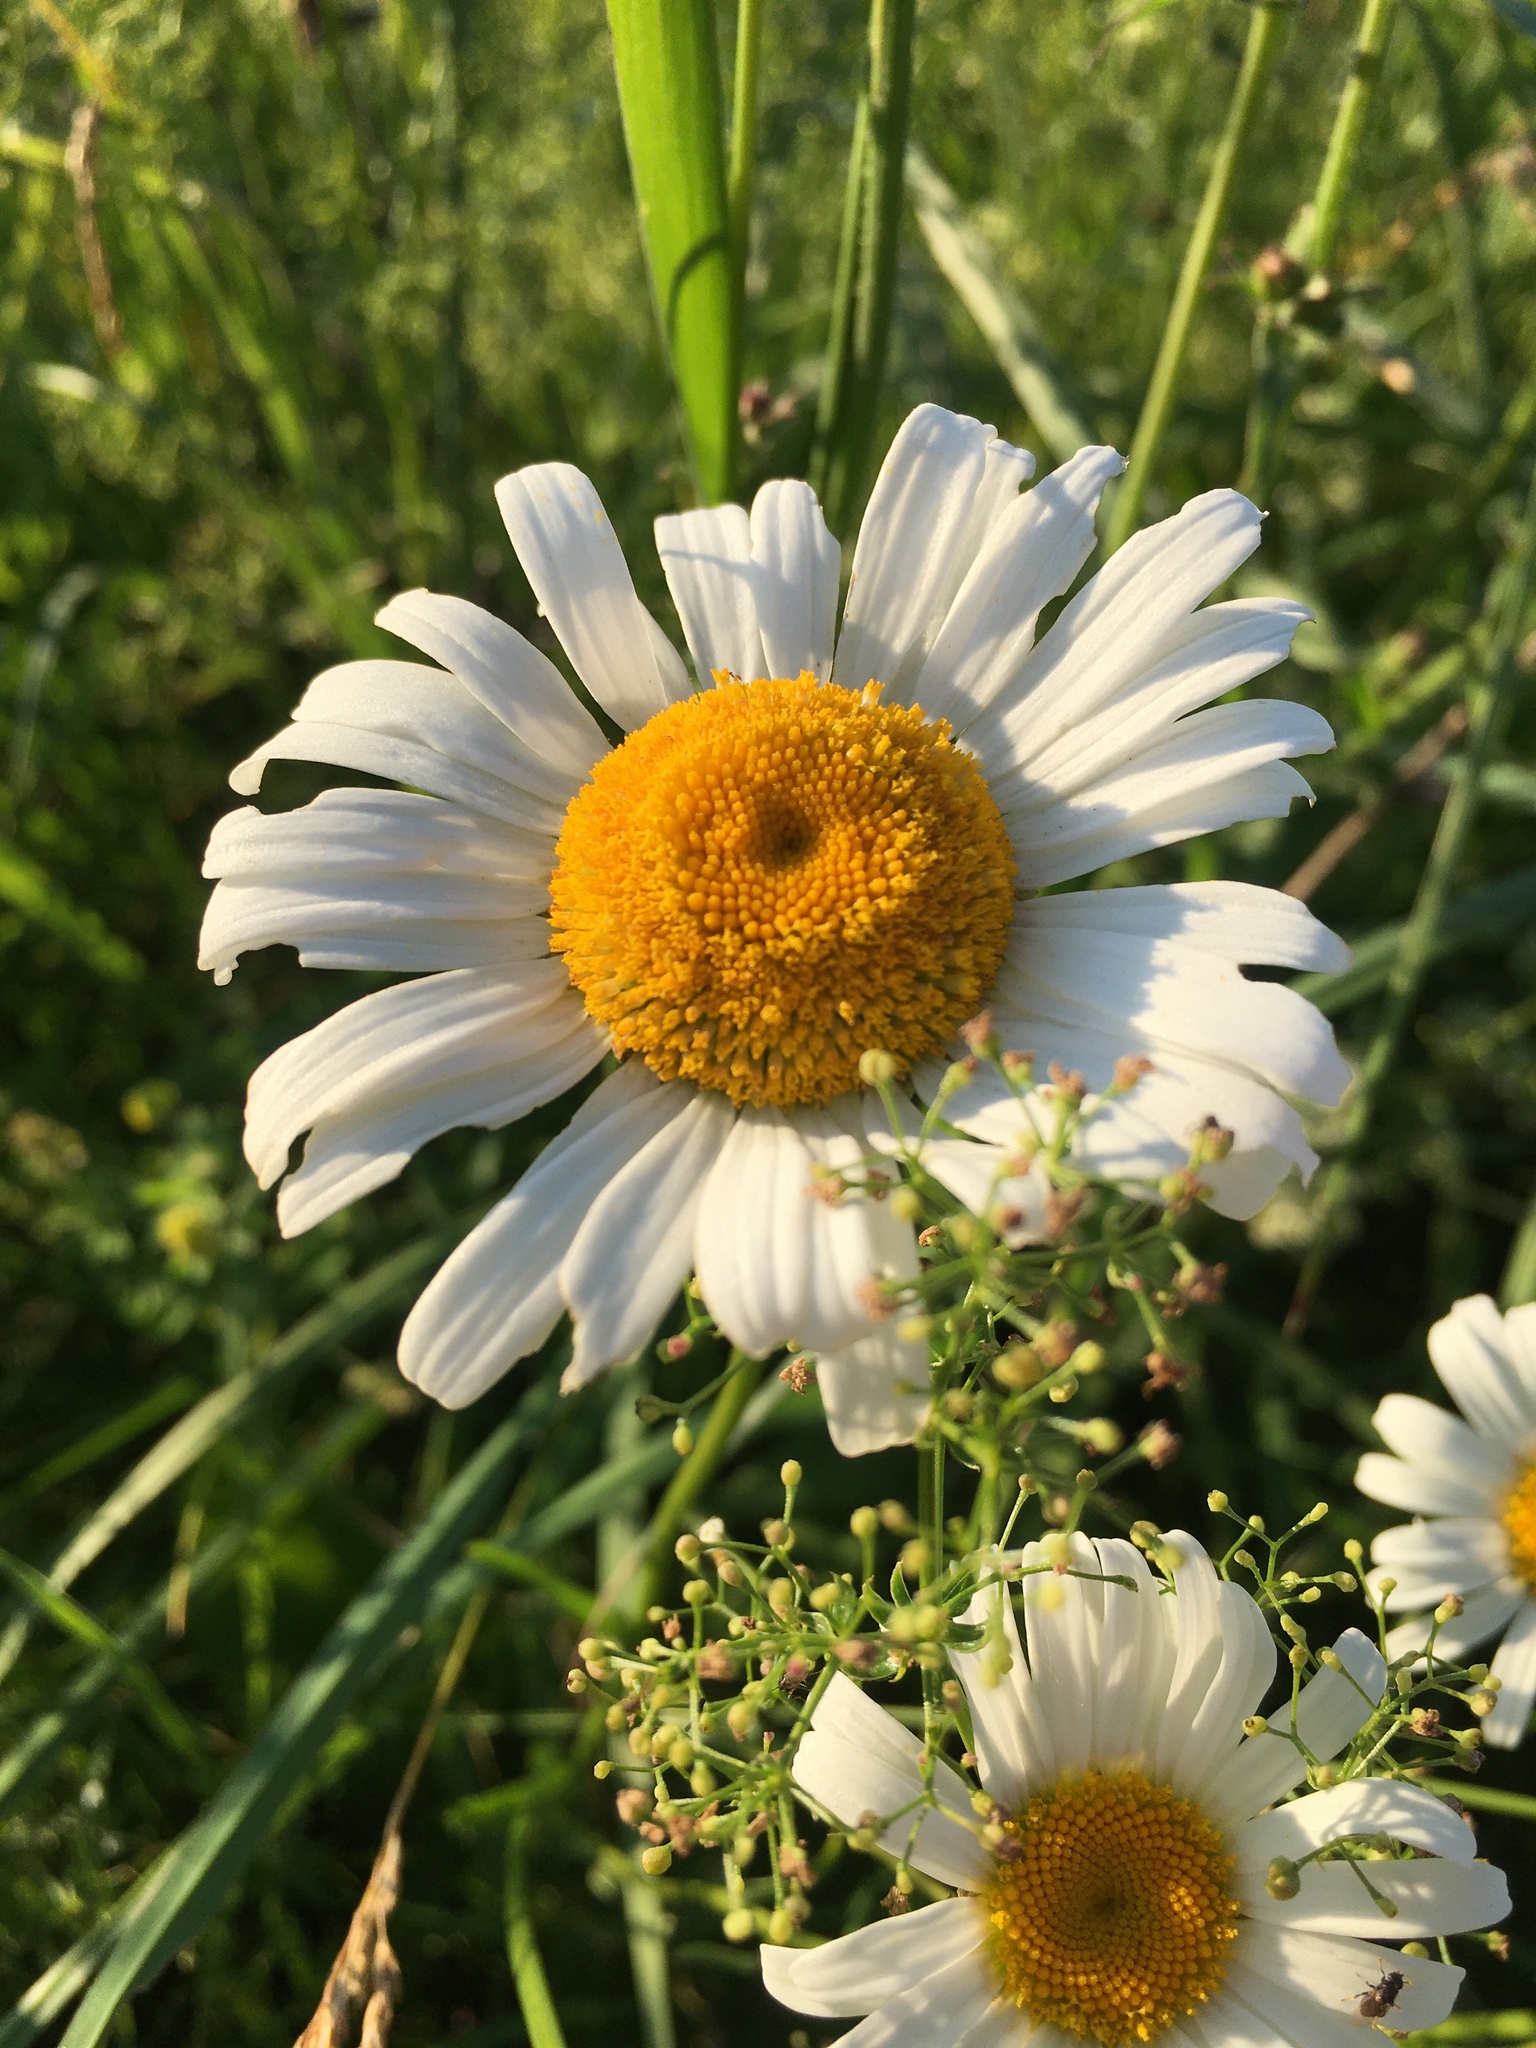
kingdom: Plantae
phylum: Tracheophyta
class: Magnoliopsida
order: Asterales
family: Asteraceae
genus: Leucanthemum
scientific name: Leucanthemum vulgare
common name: Oxeye daisy
